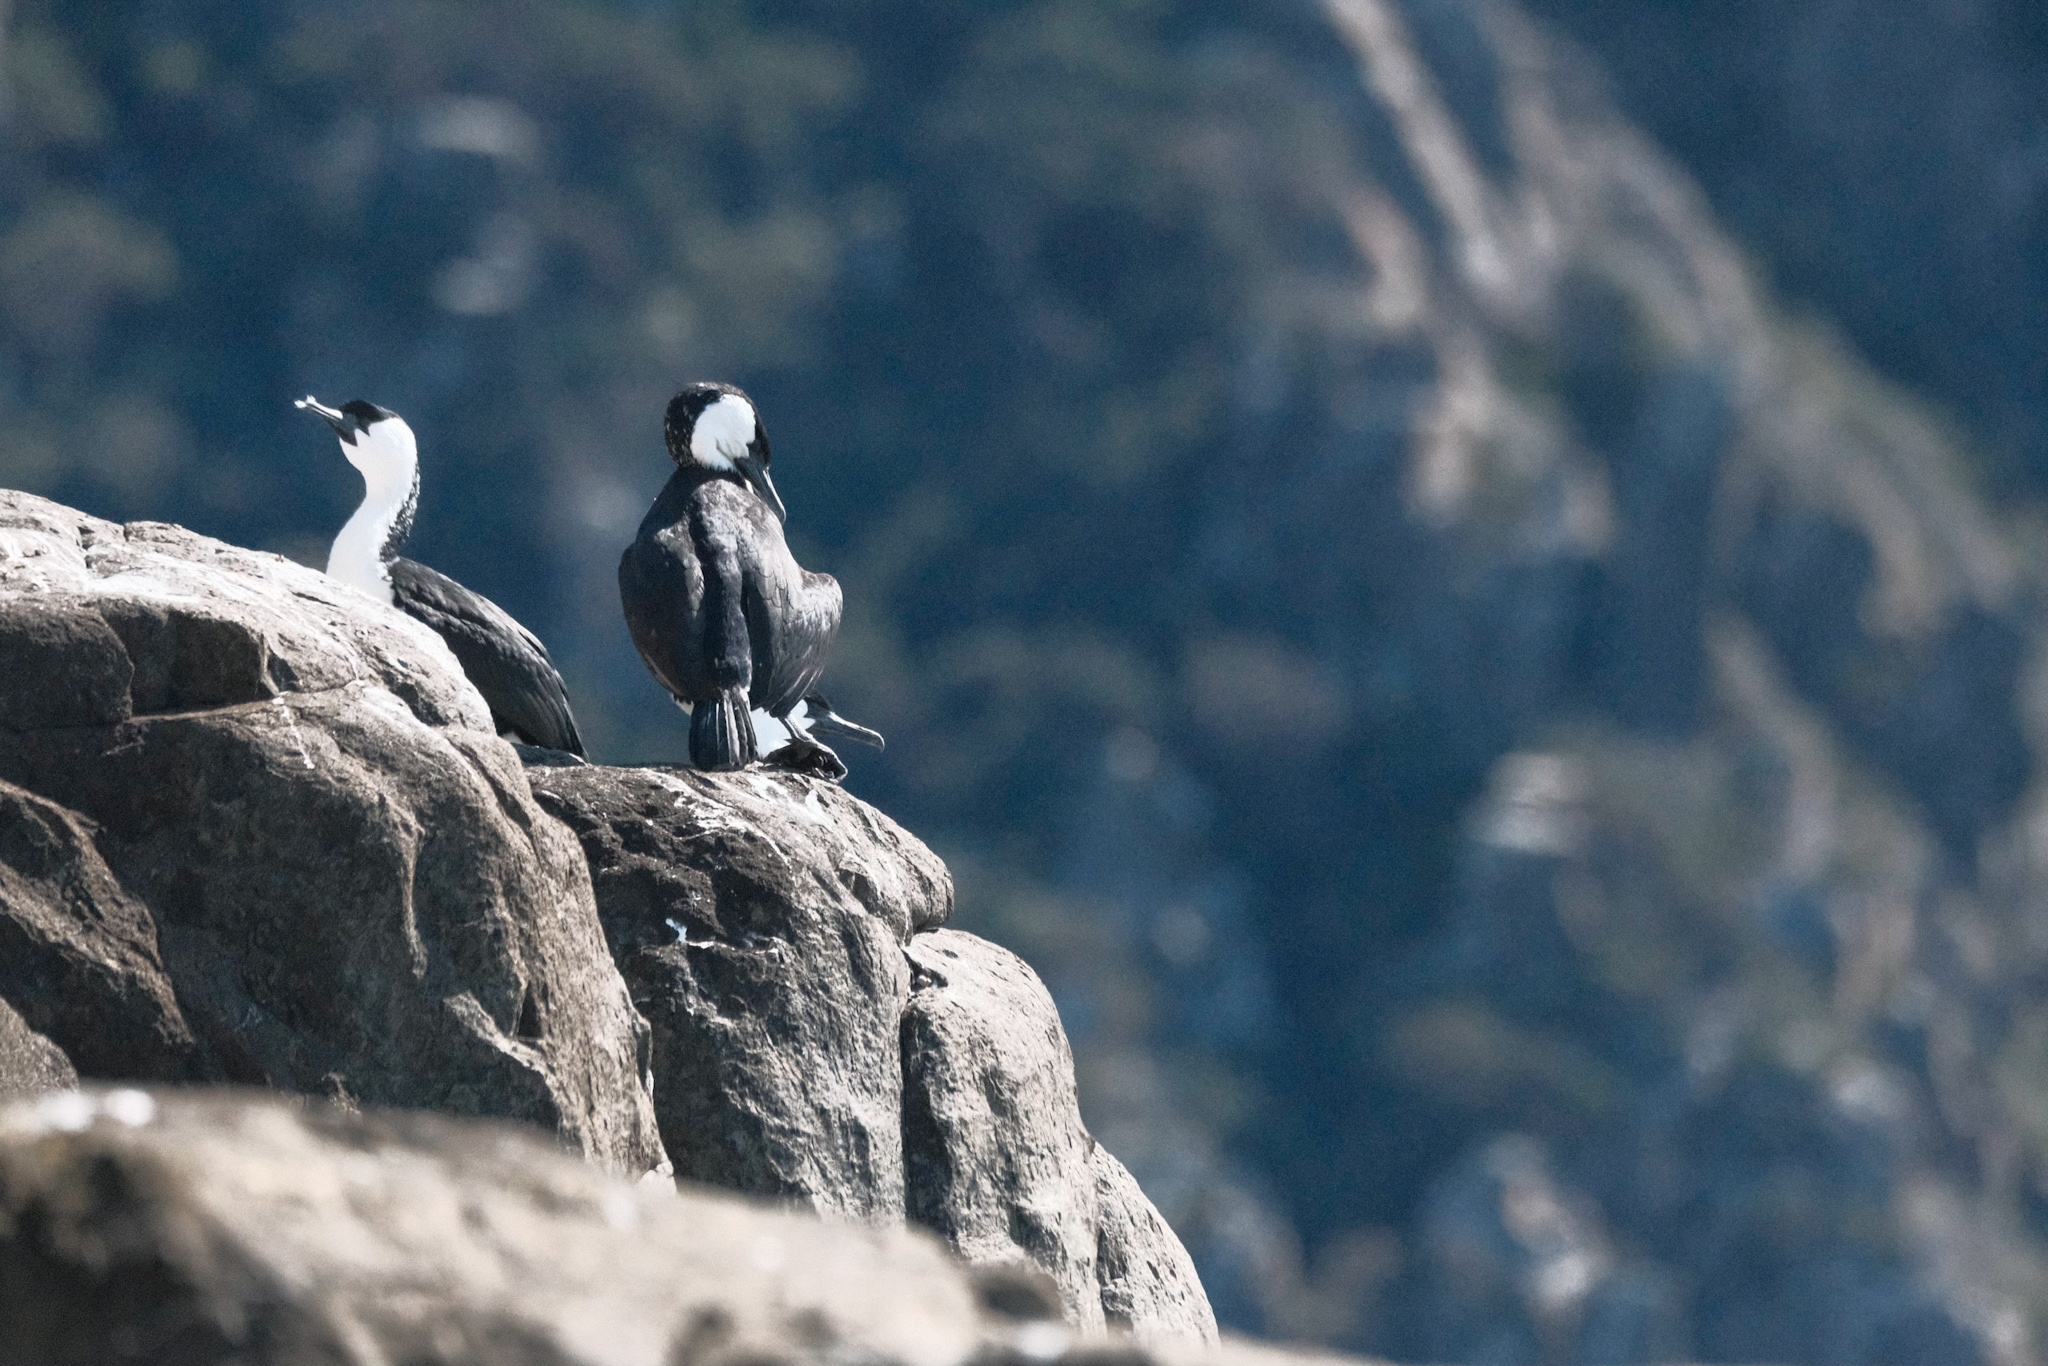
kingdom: Animalia
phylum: Chordata
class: Aves
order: Suliformes
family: Phalacrocoracidae
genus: Phalacrocorax
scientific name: Phalacrocorax fuscescens
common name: Black-faced cormorant
